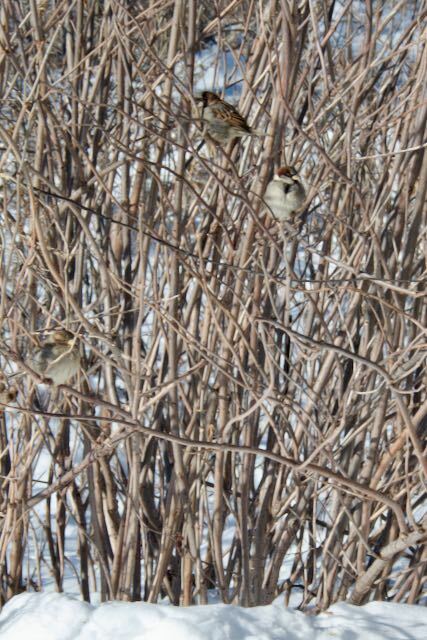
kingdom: Animalia
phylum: Chordata
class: Aves
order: Passeriformes
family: Passeridae
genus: Passer
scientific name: Passer domesticus
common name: House sparrow
